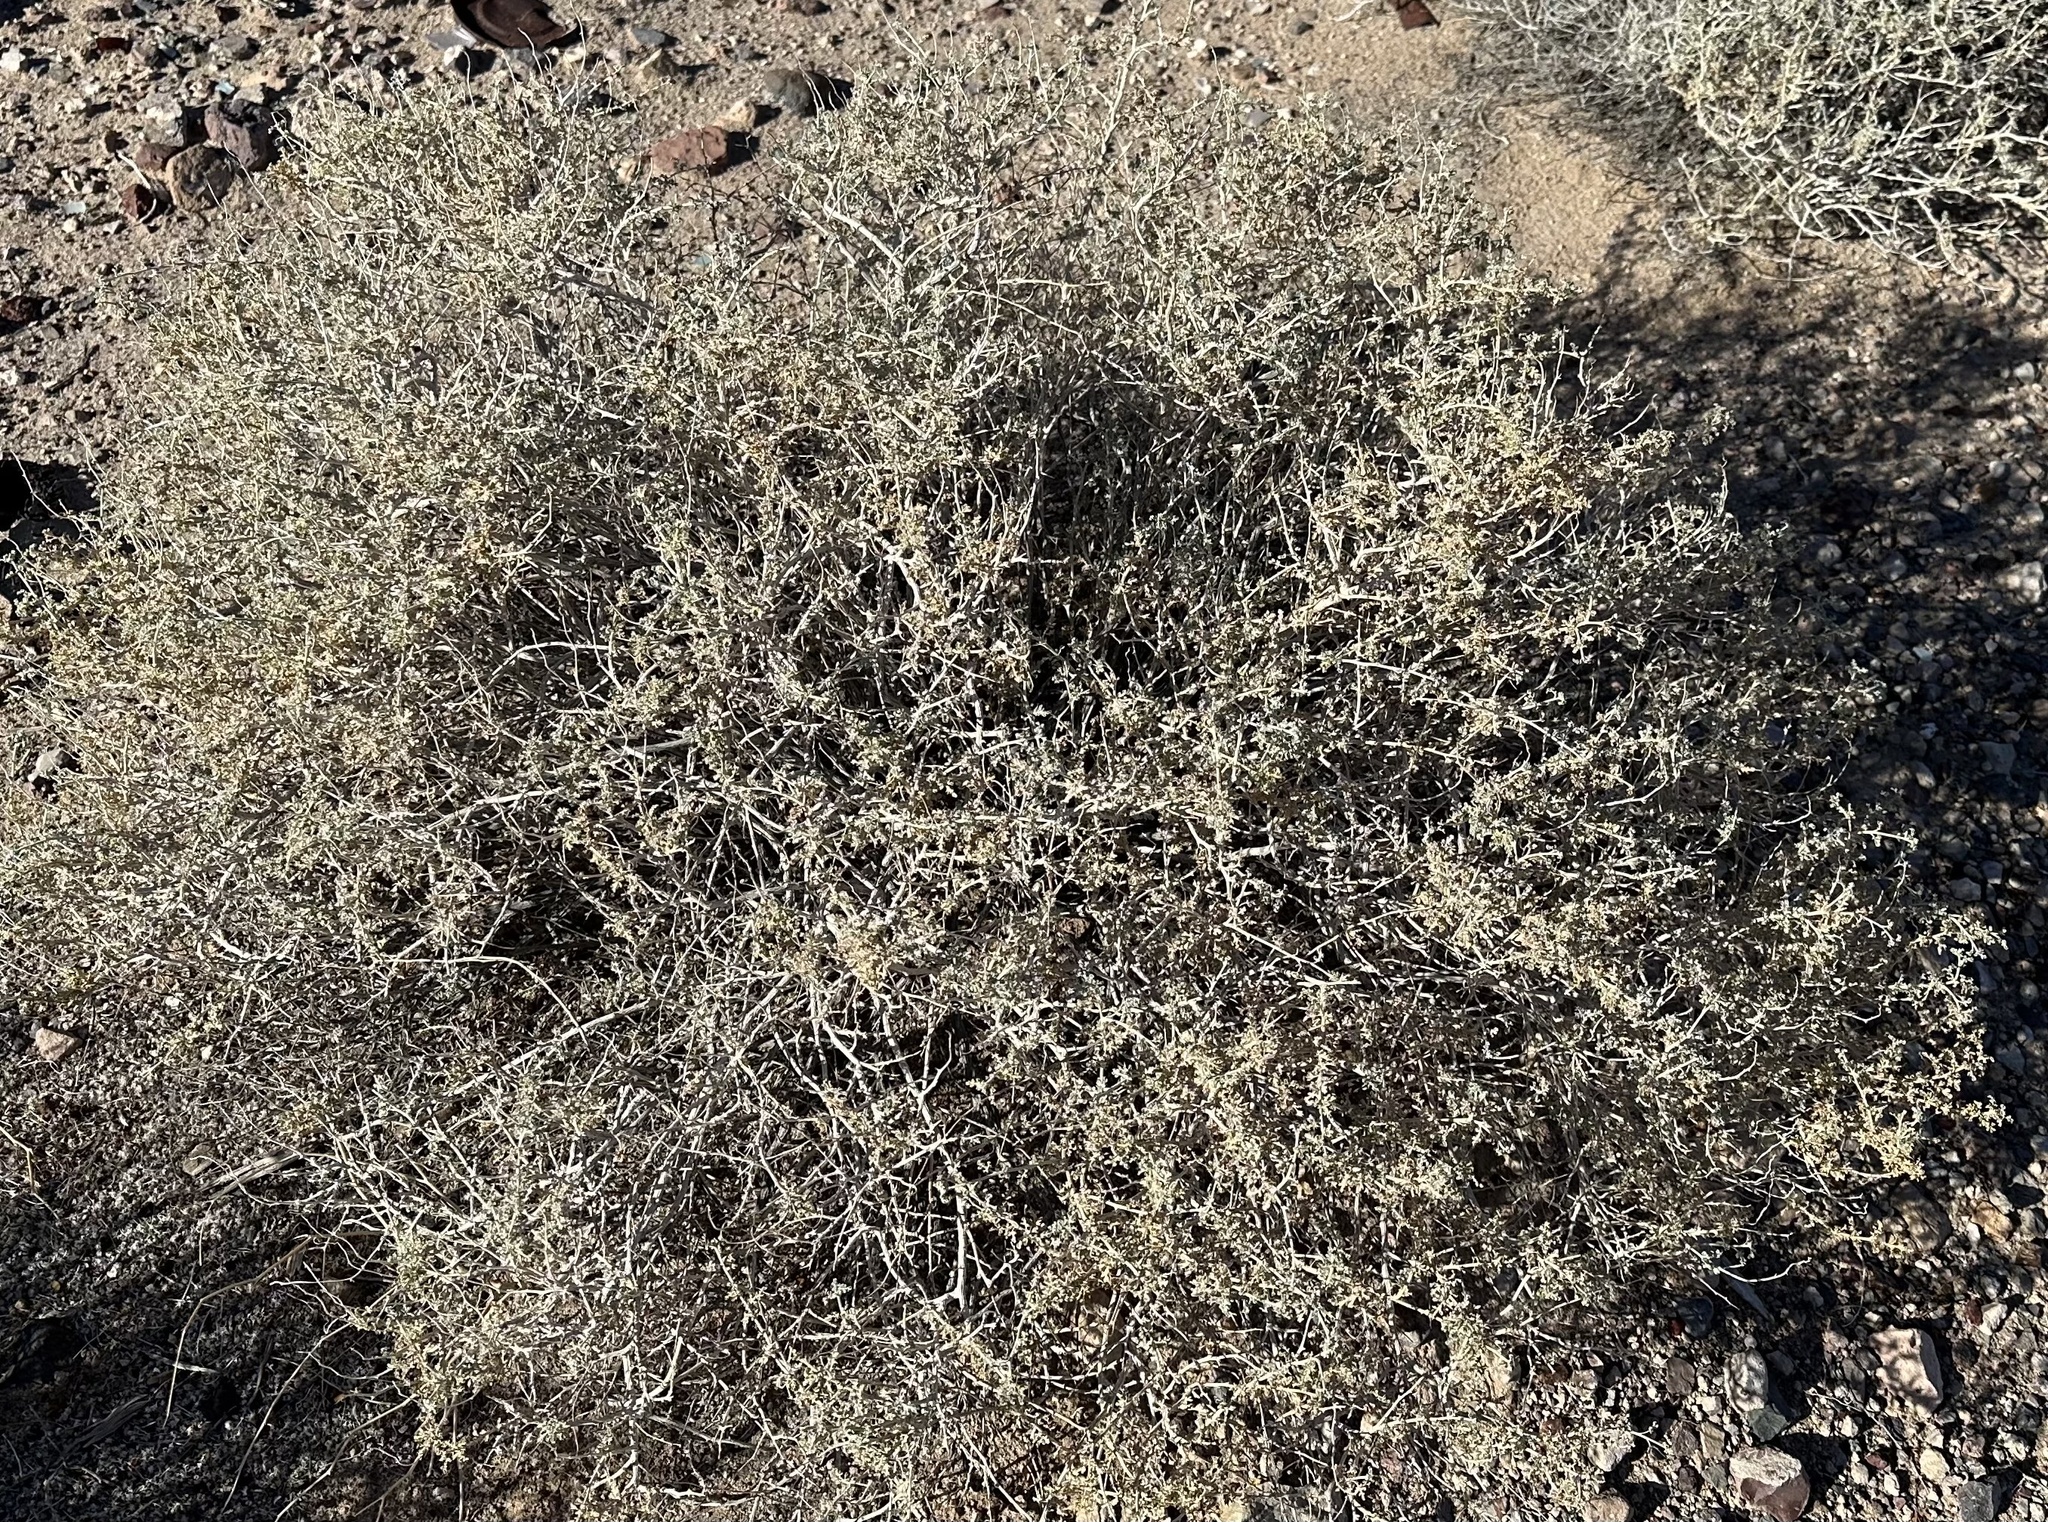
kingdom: Plantae
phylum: Tracheophyta
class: Magnoliopsida
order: Asterales
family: Asteraceae
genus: Ambrosia
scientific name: Ambrosia dumosa
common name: Bur-sage
